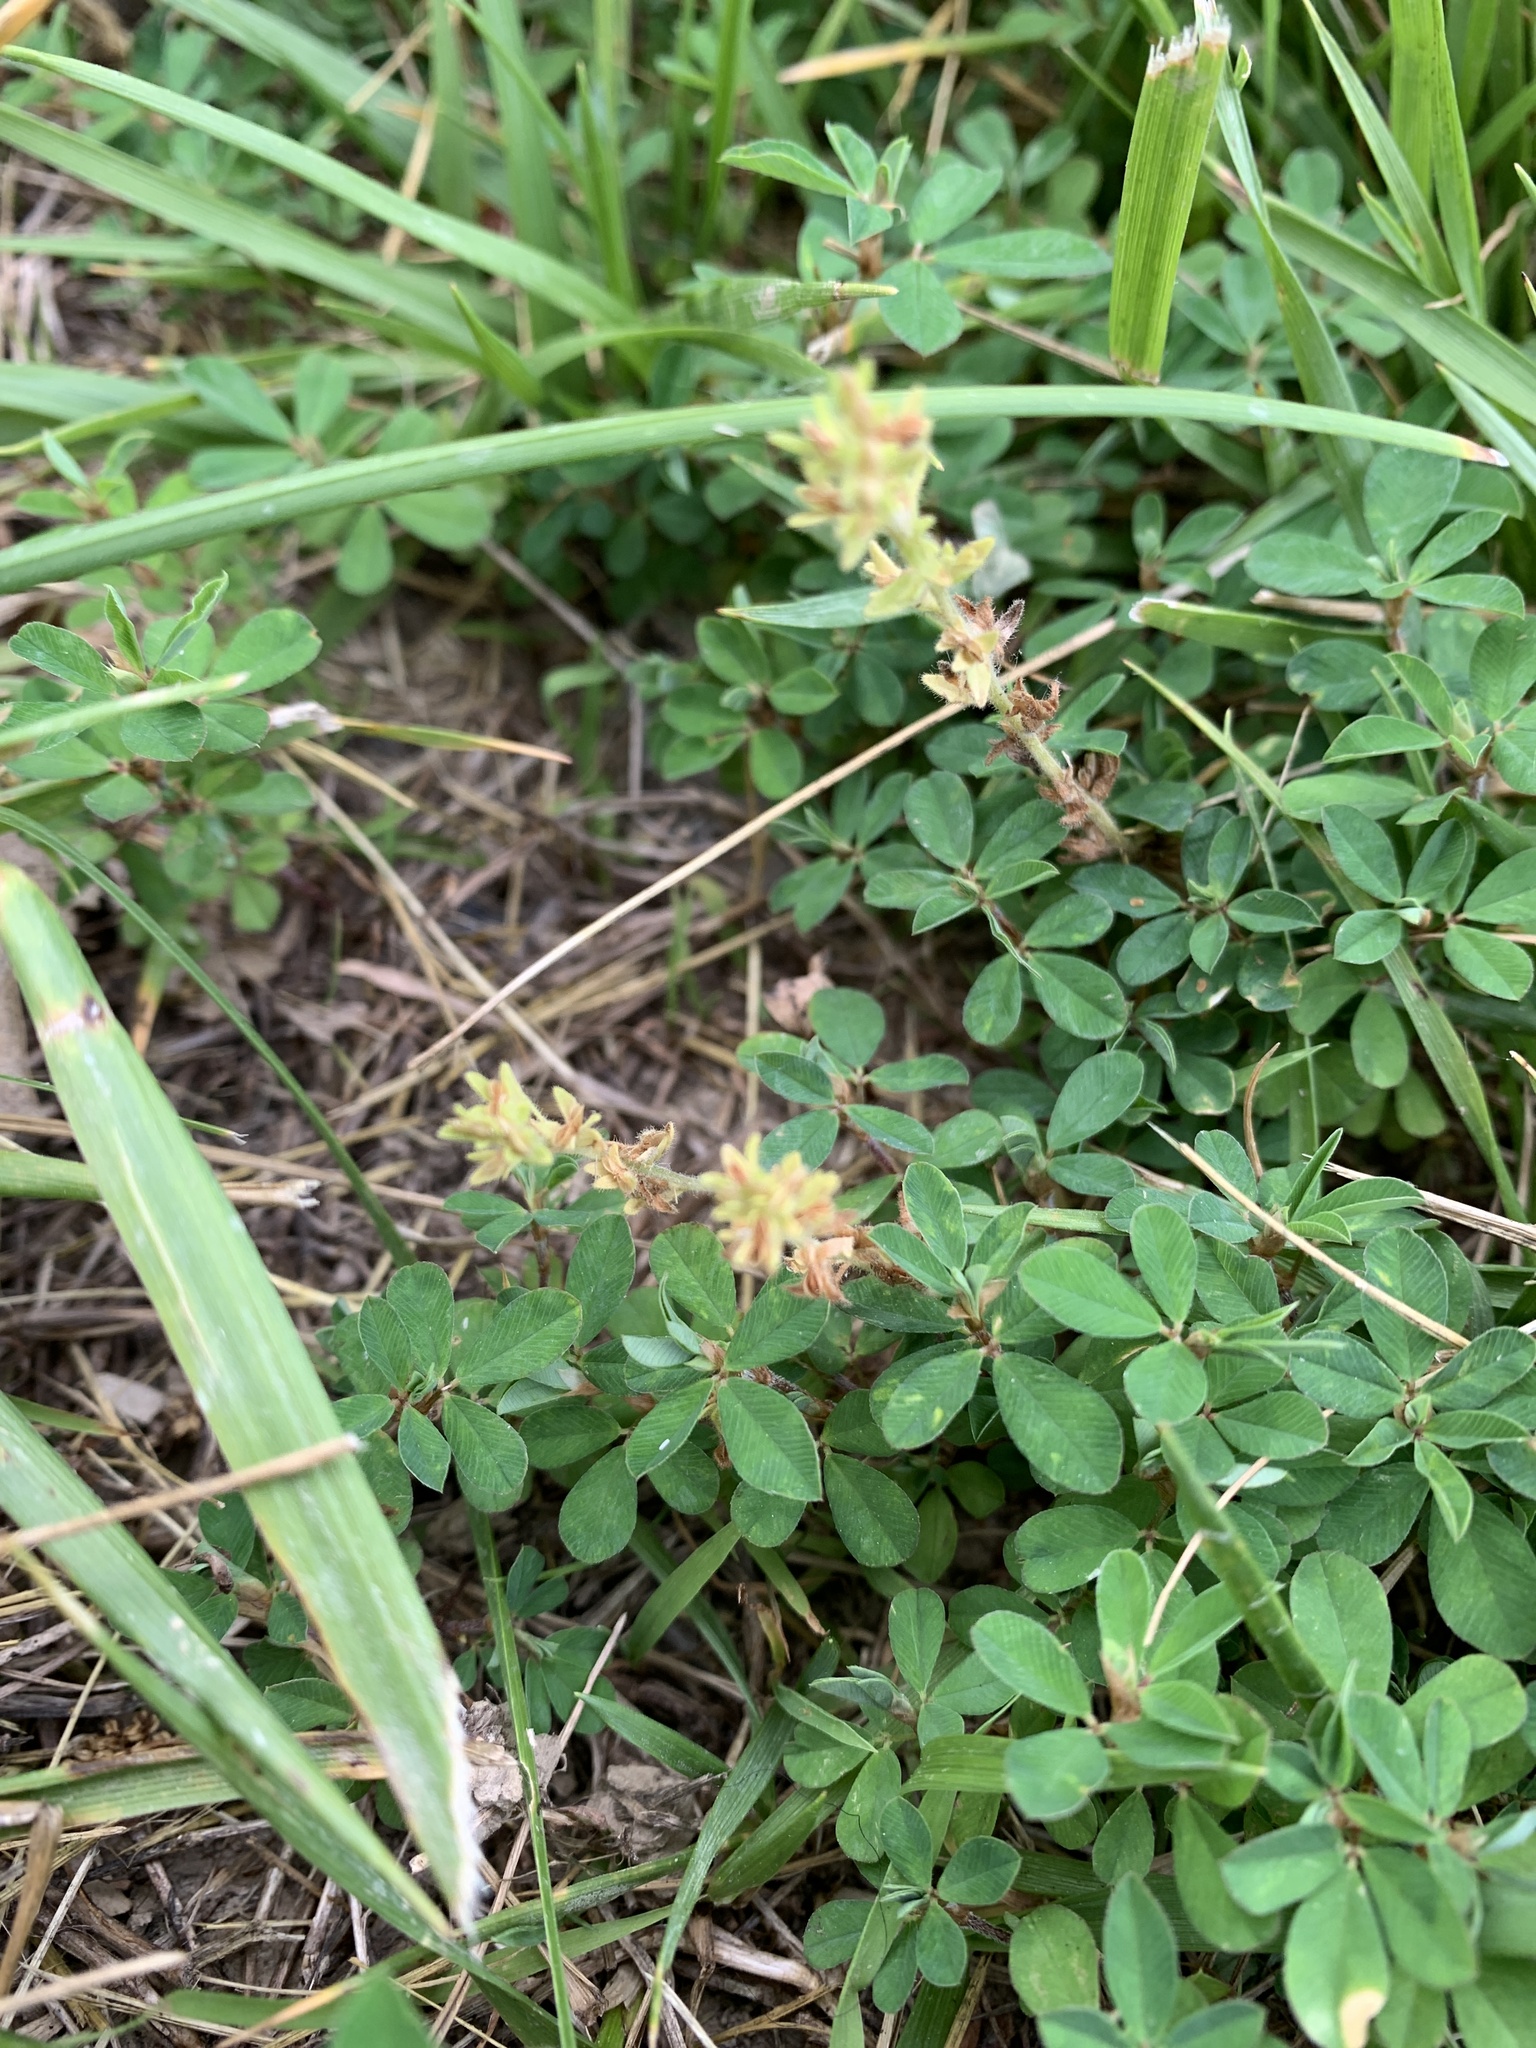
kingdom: Plantae
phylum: Tracheophyta
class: Magnoliopsida
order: Fabales
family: Fabaceae
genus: Kummerowia
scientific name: Kummerowia striata
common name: Japanese clover
